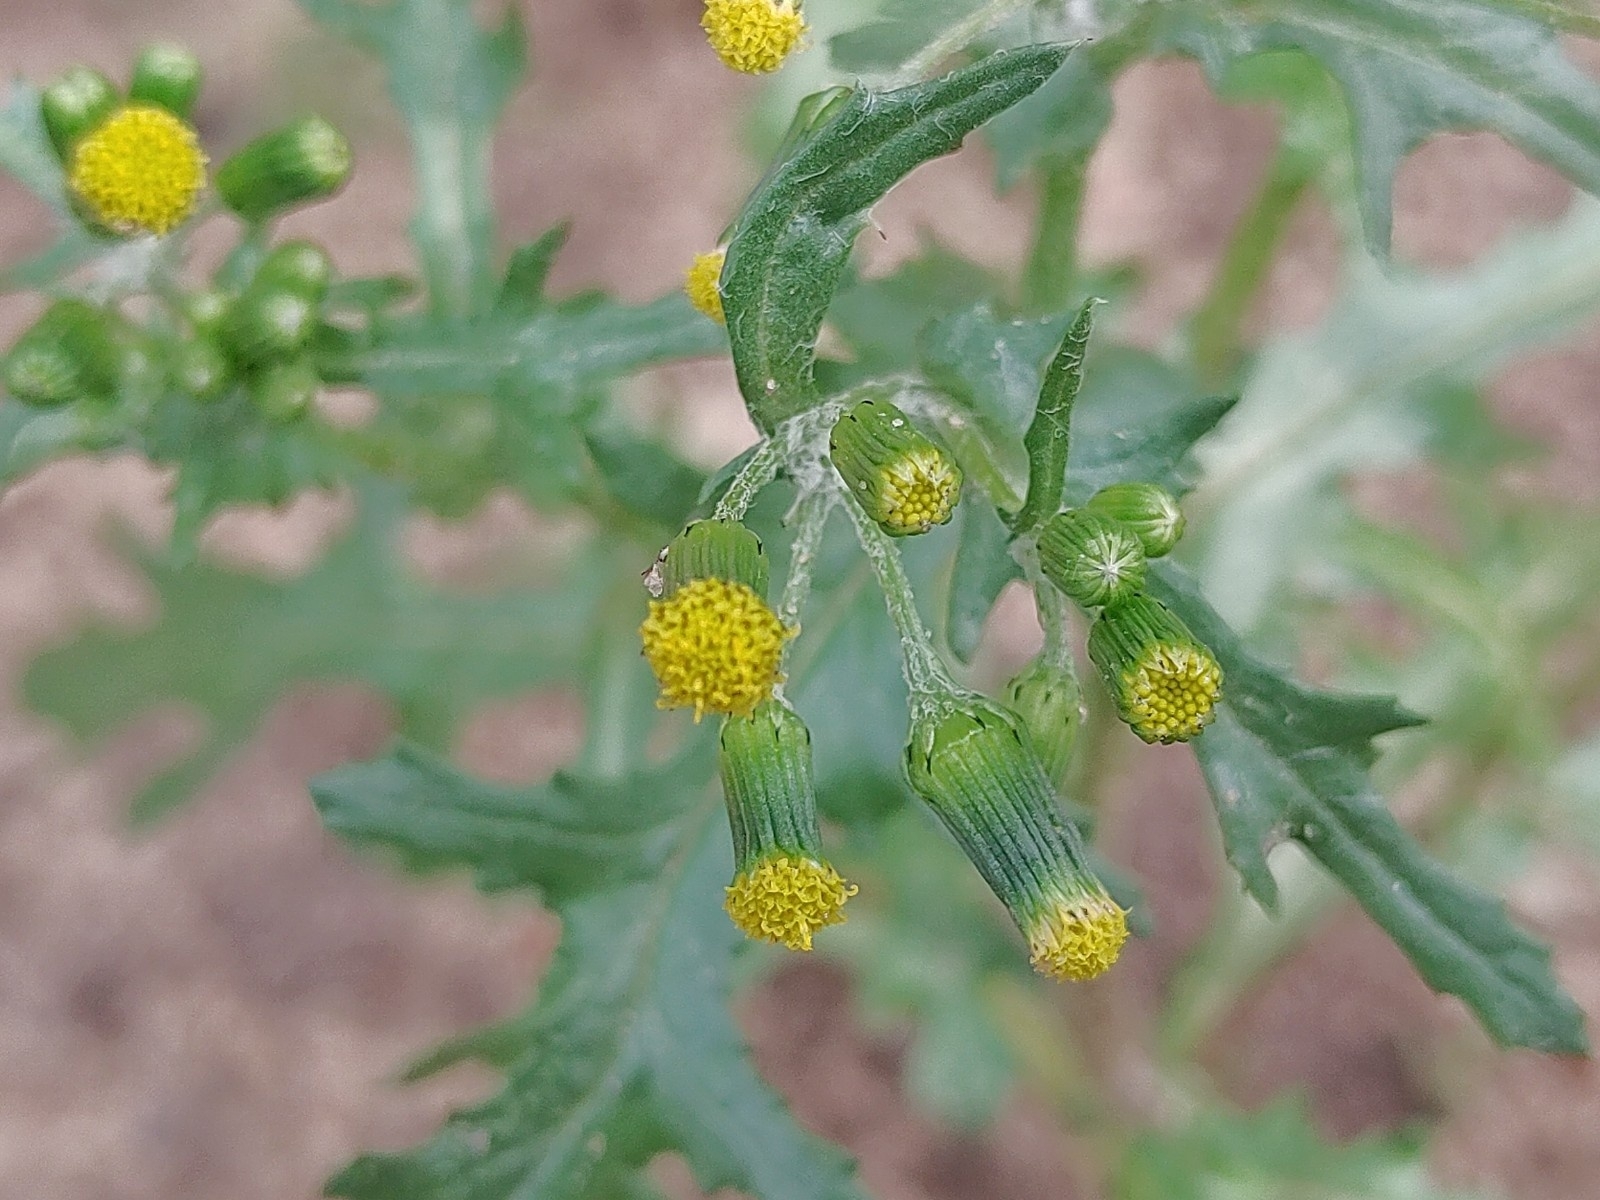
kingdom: Plantae
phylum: Tracheophyta
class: Magnoliopsida
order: Asterales
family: Asteraceae
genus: Senecio
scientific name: Senecio vulgaris
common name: Old-man-in-the-spring
